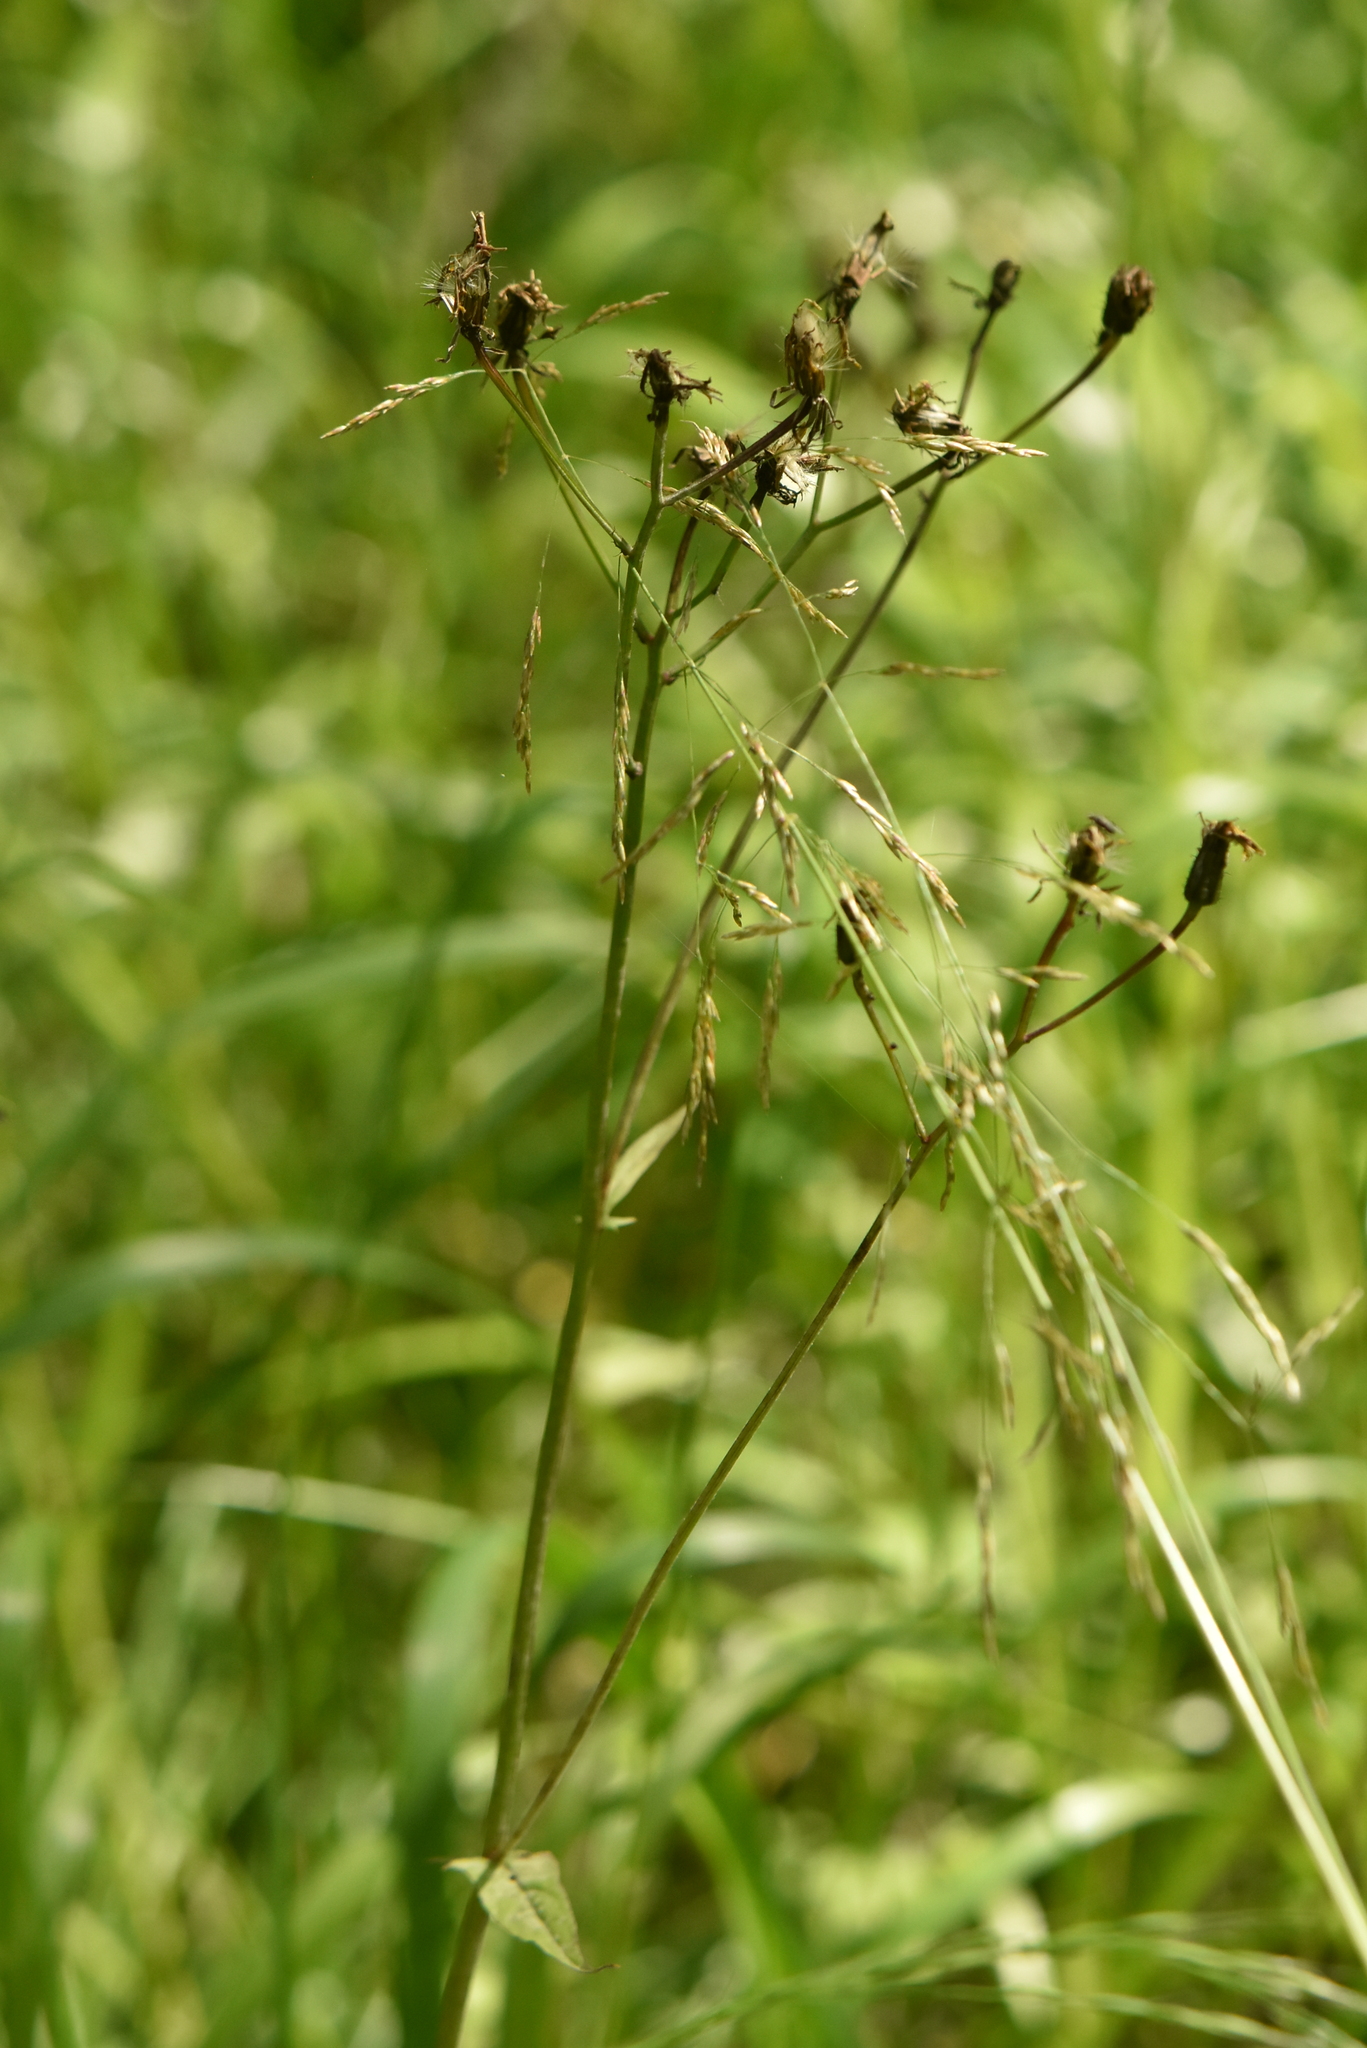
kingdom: Plantae
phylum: Tracheophyta
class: Magnoliopsida
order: Asterales
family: Asteraceae
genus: Crepis
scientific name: Crepis paludosa
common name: Marsh hawk's-beard
